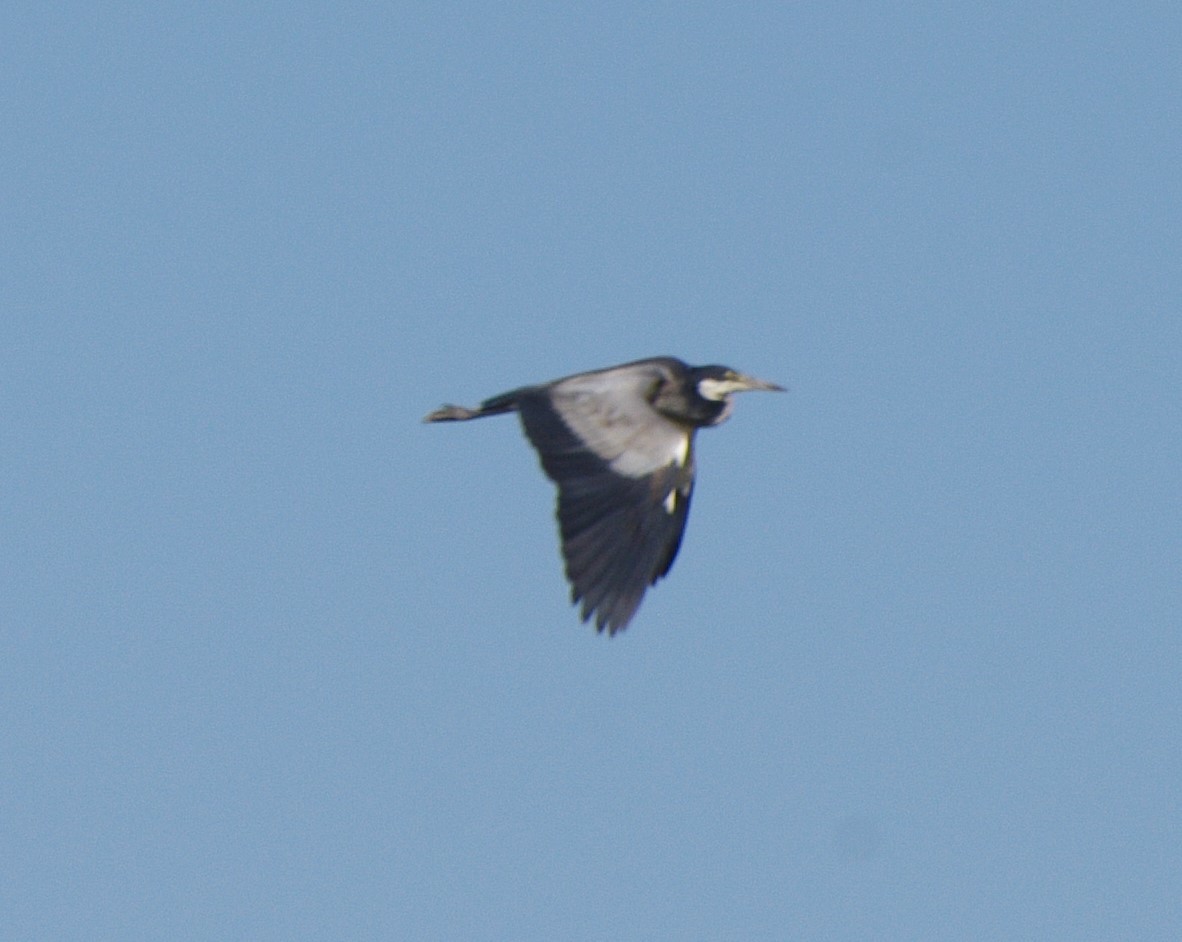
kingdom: Animalia
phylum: Chordata
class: Aves
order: Pelecaniformes
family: Ardeidae
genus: Ardea
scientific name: Ardea melanocephala
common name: Black-headed heron
